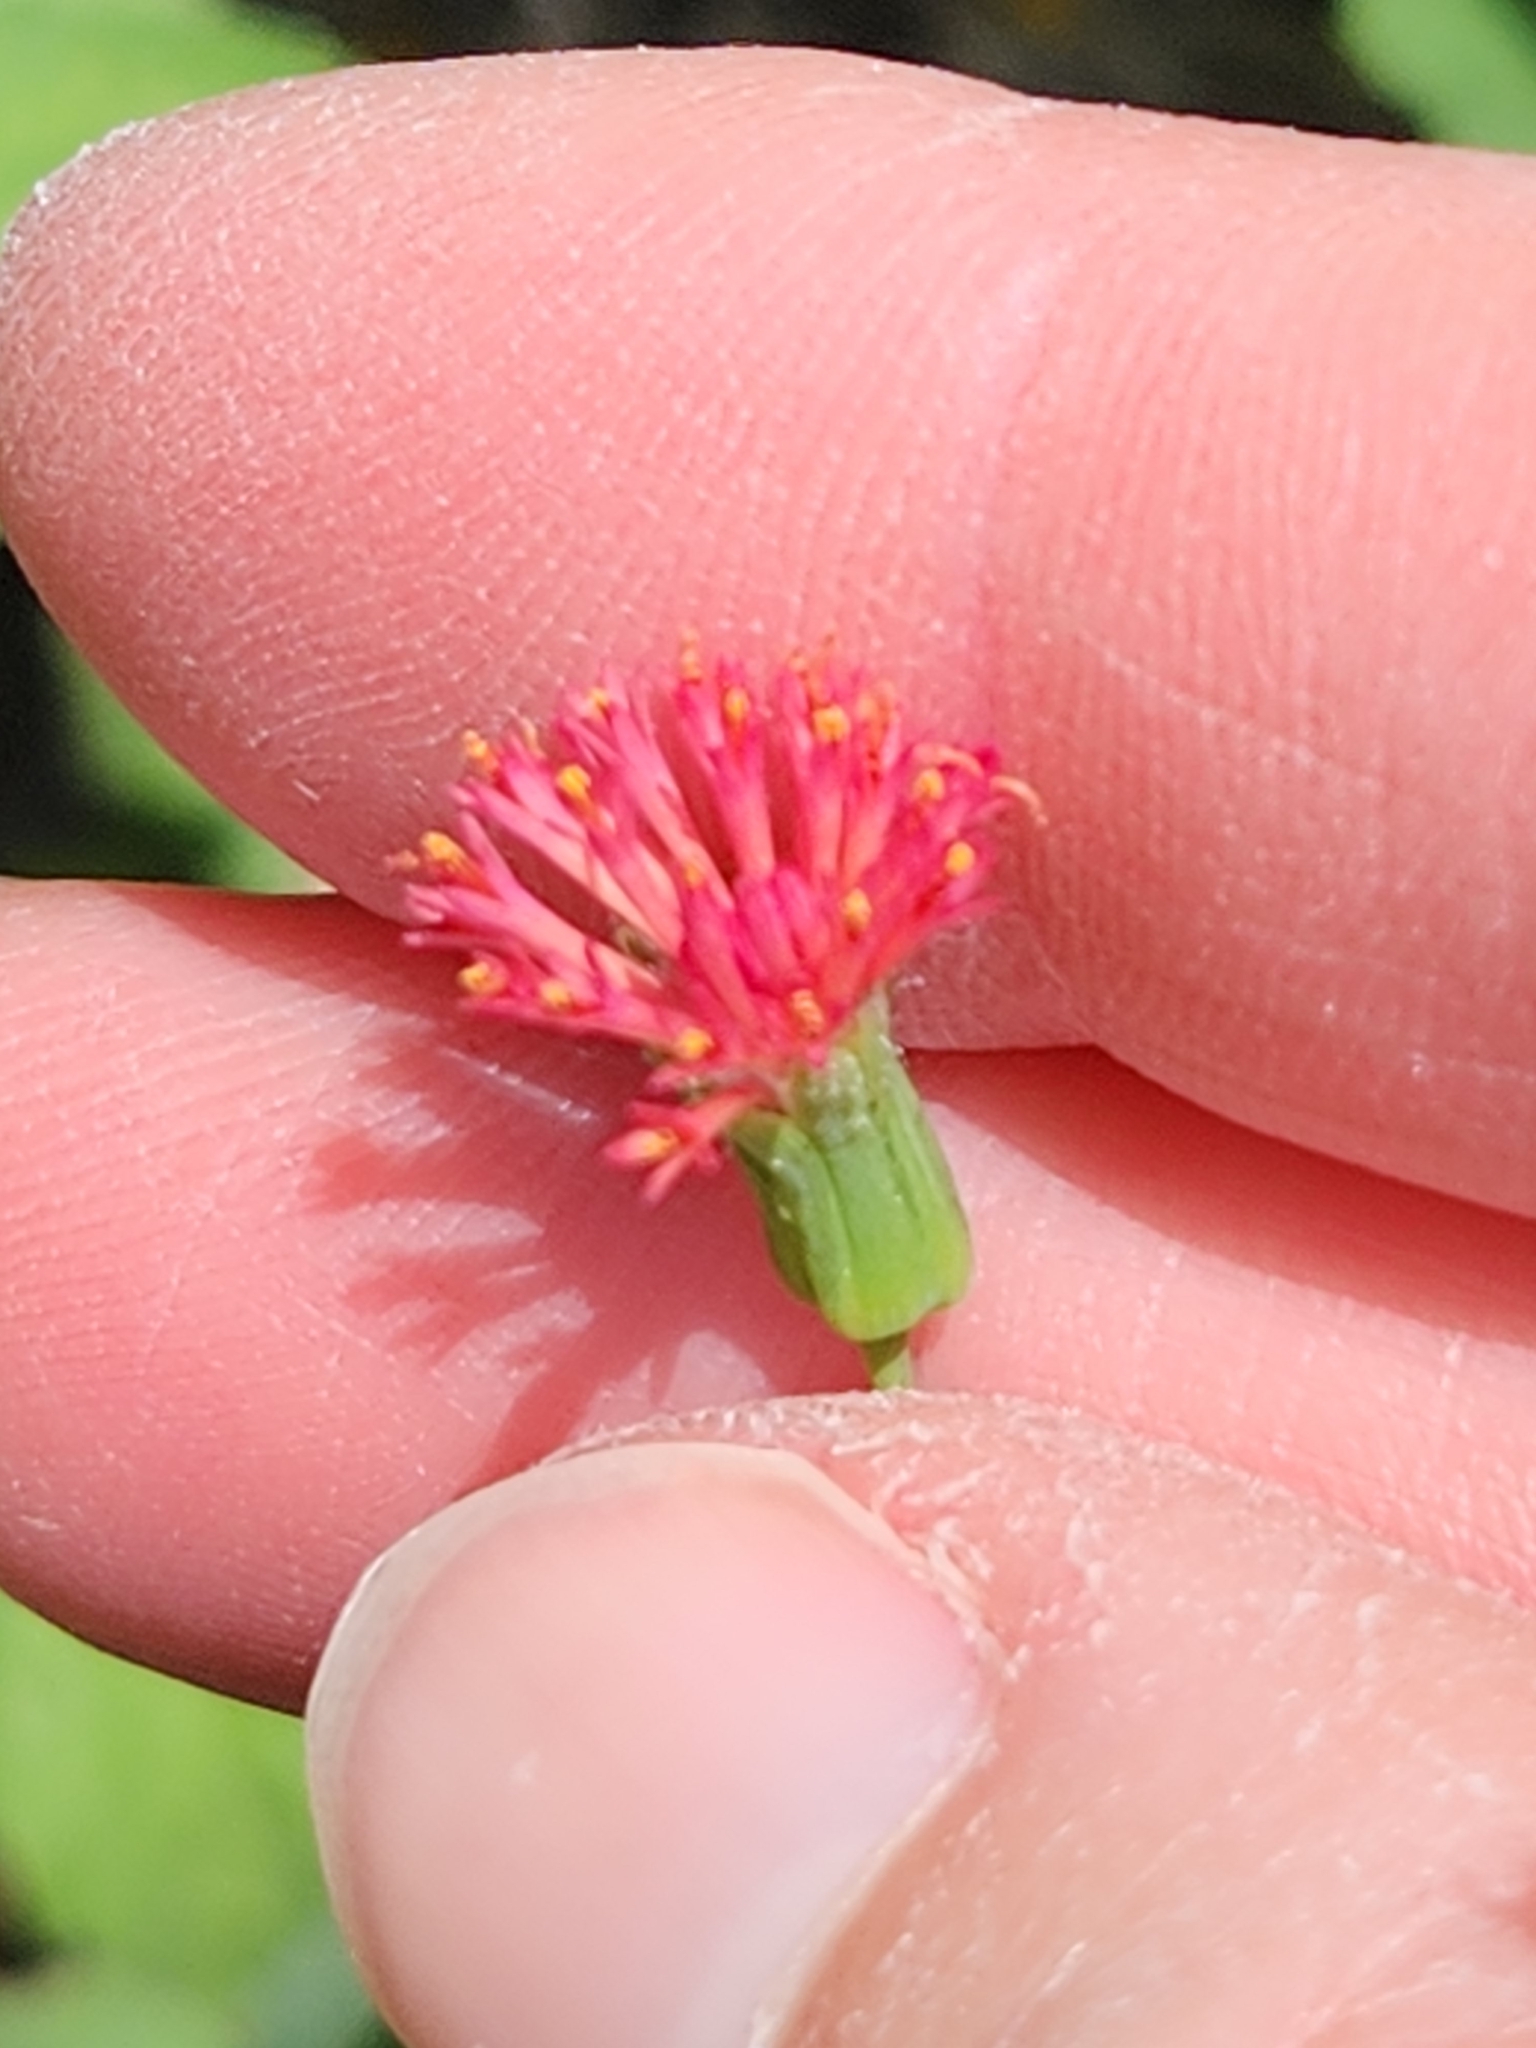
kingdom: Plantae
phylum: Tracheophyta
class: Magnoliopsida
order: Asterales
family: Asteraceae
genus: Emilia
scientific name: Emilia fosbergii
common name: Florida tasselflower
